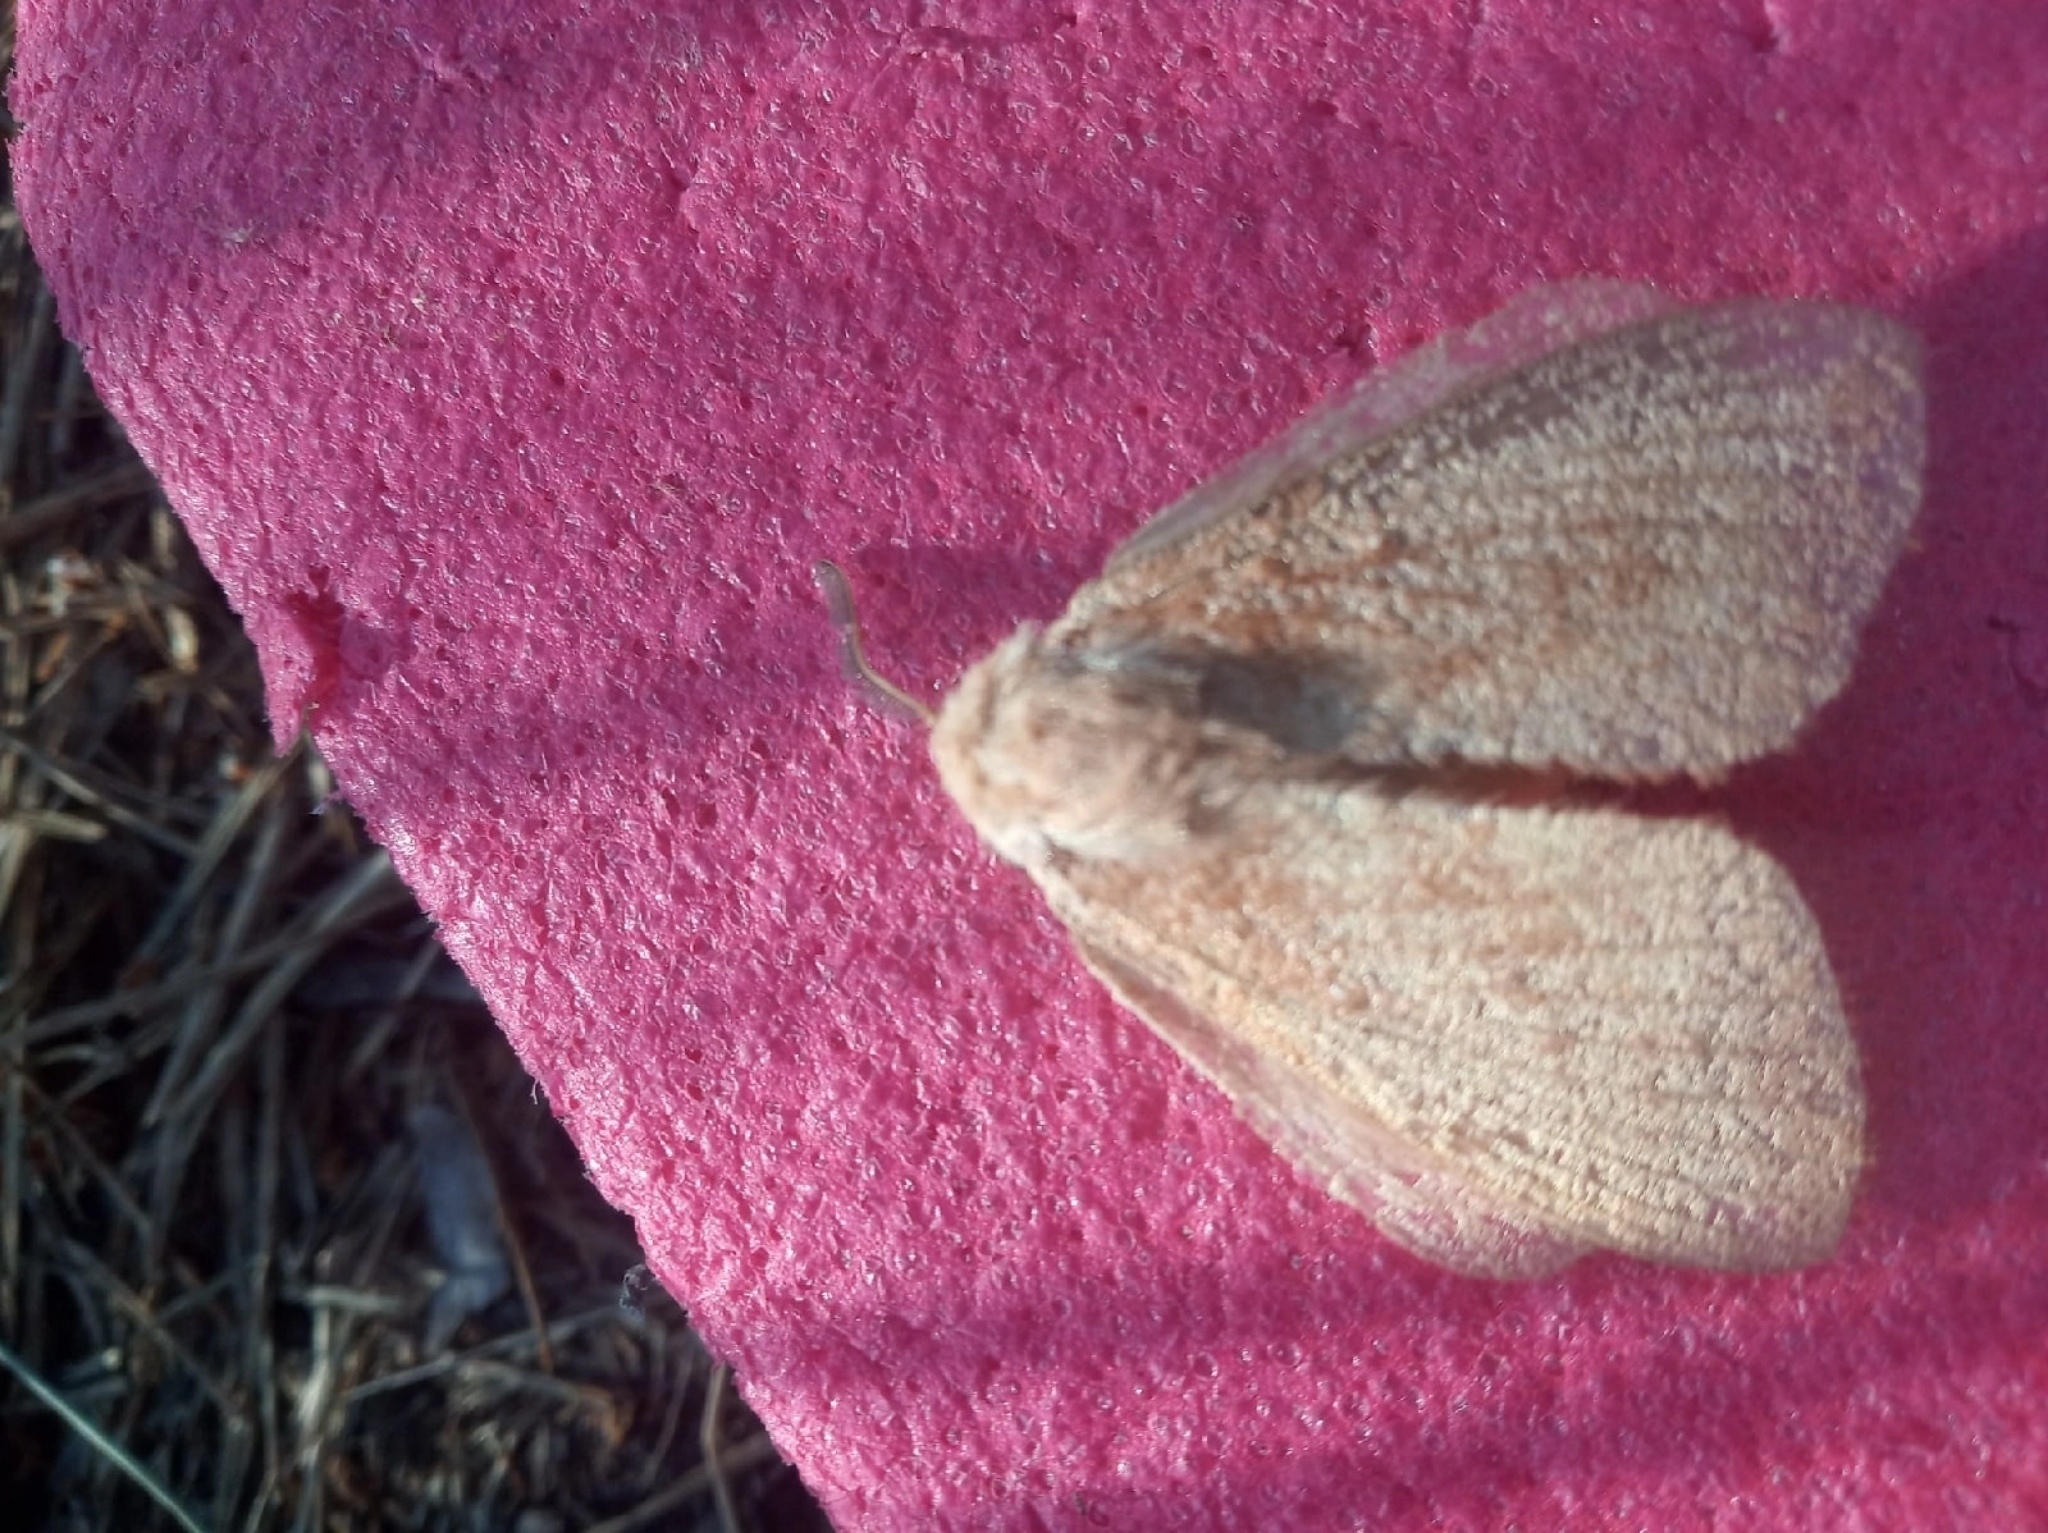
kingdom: Animalia
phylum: Arthropoda
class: Insecta
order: Lepidoptera
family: Lasiocampidae
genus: Dendrolimus
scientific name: Dendrolimus pini
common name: Pine-tree lappet
